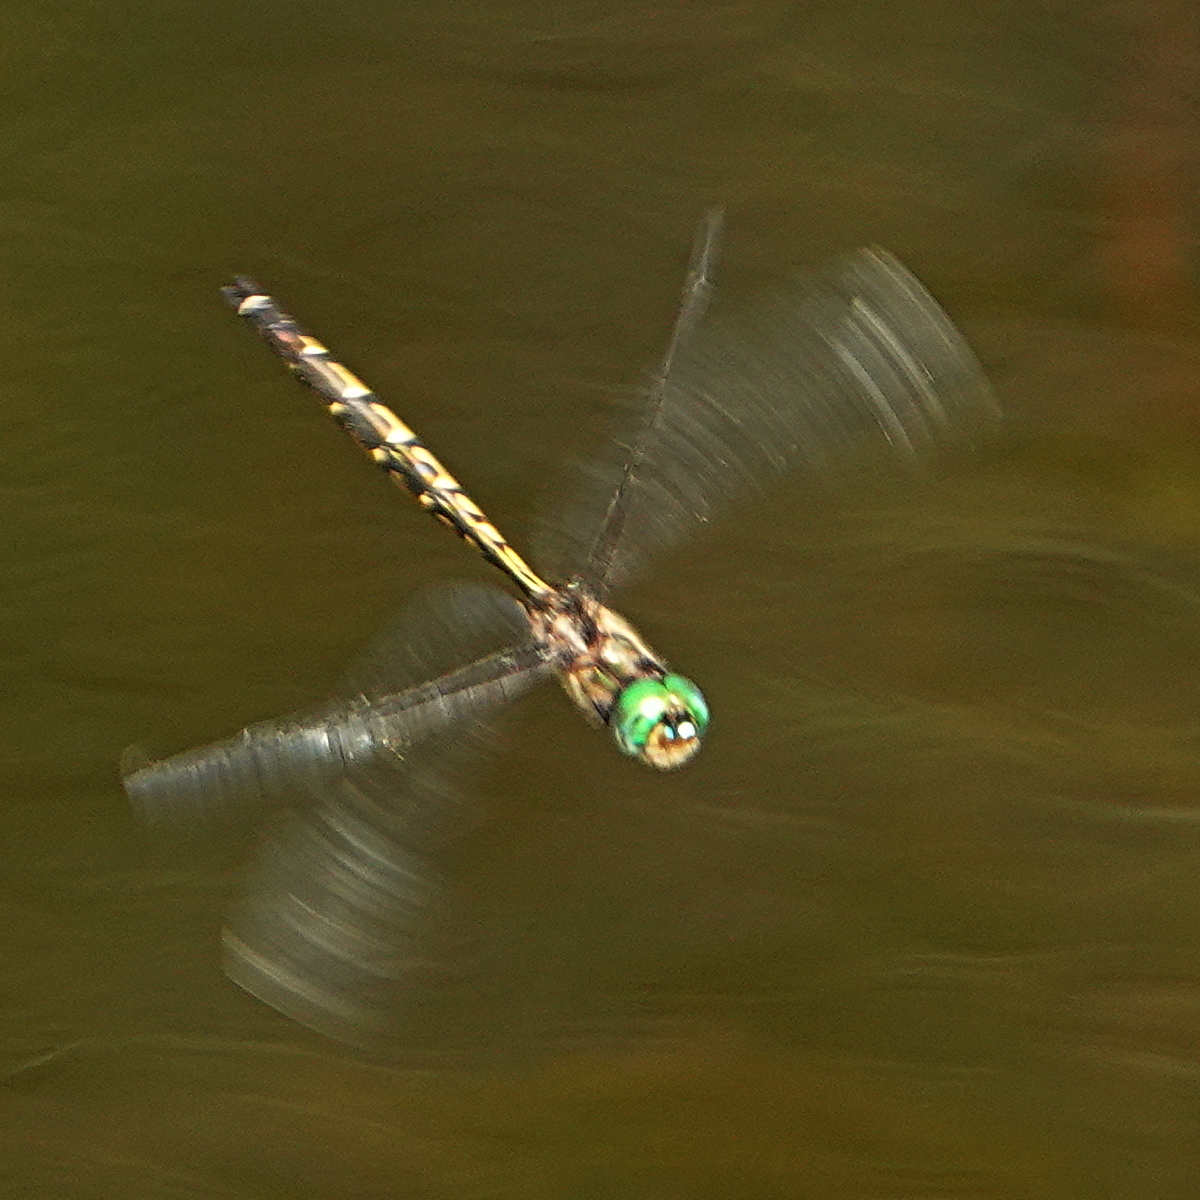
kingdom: Animalia
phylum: Arthropoda
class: Insecta
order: Odonata
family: Corduliidae
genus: Hemicordulia
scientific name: Hemicordulia australiae
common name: Sentry dragonfly
